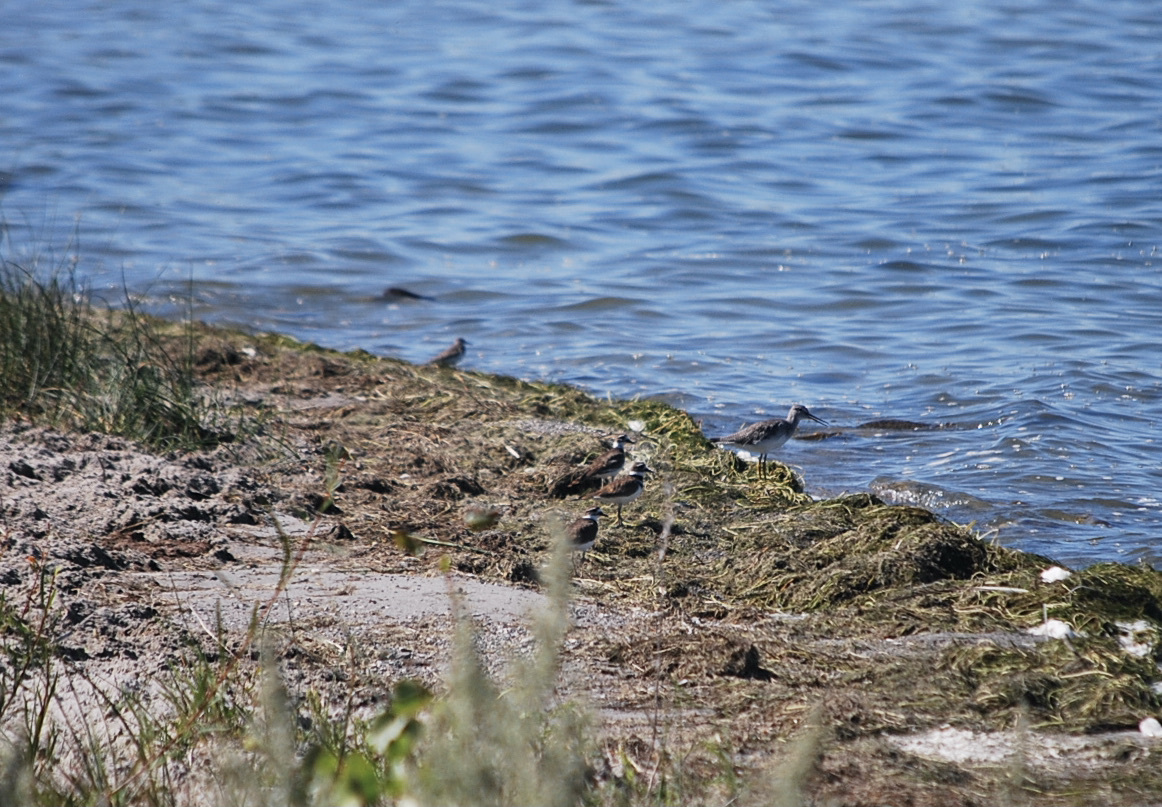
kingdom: Animalia
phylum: Chordata
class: Aves
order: Charadriiformes
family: Charadriidae
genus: Charadrius
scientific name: Charadrius vociferus
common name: Killdeer
